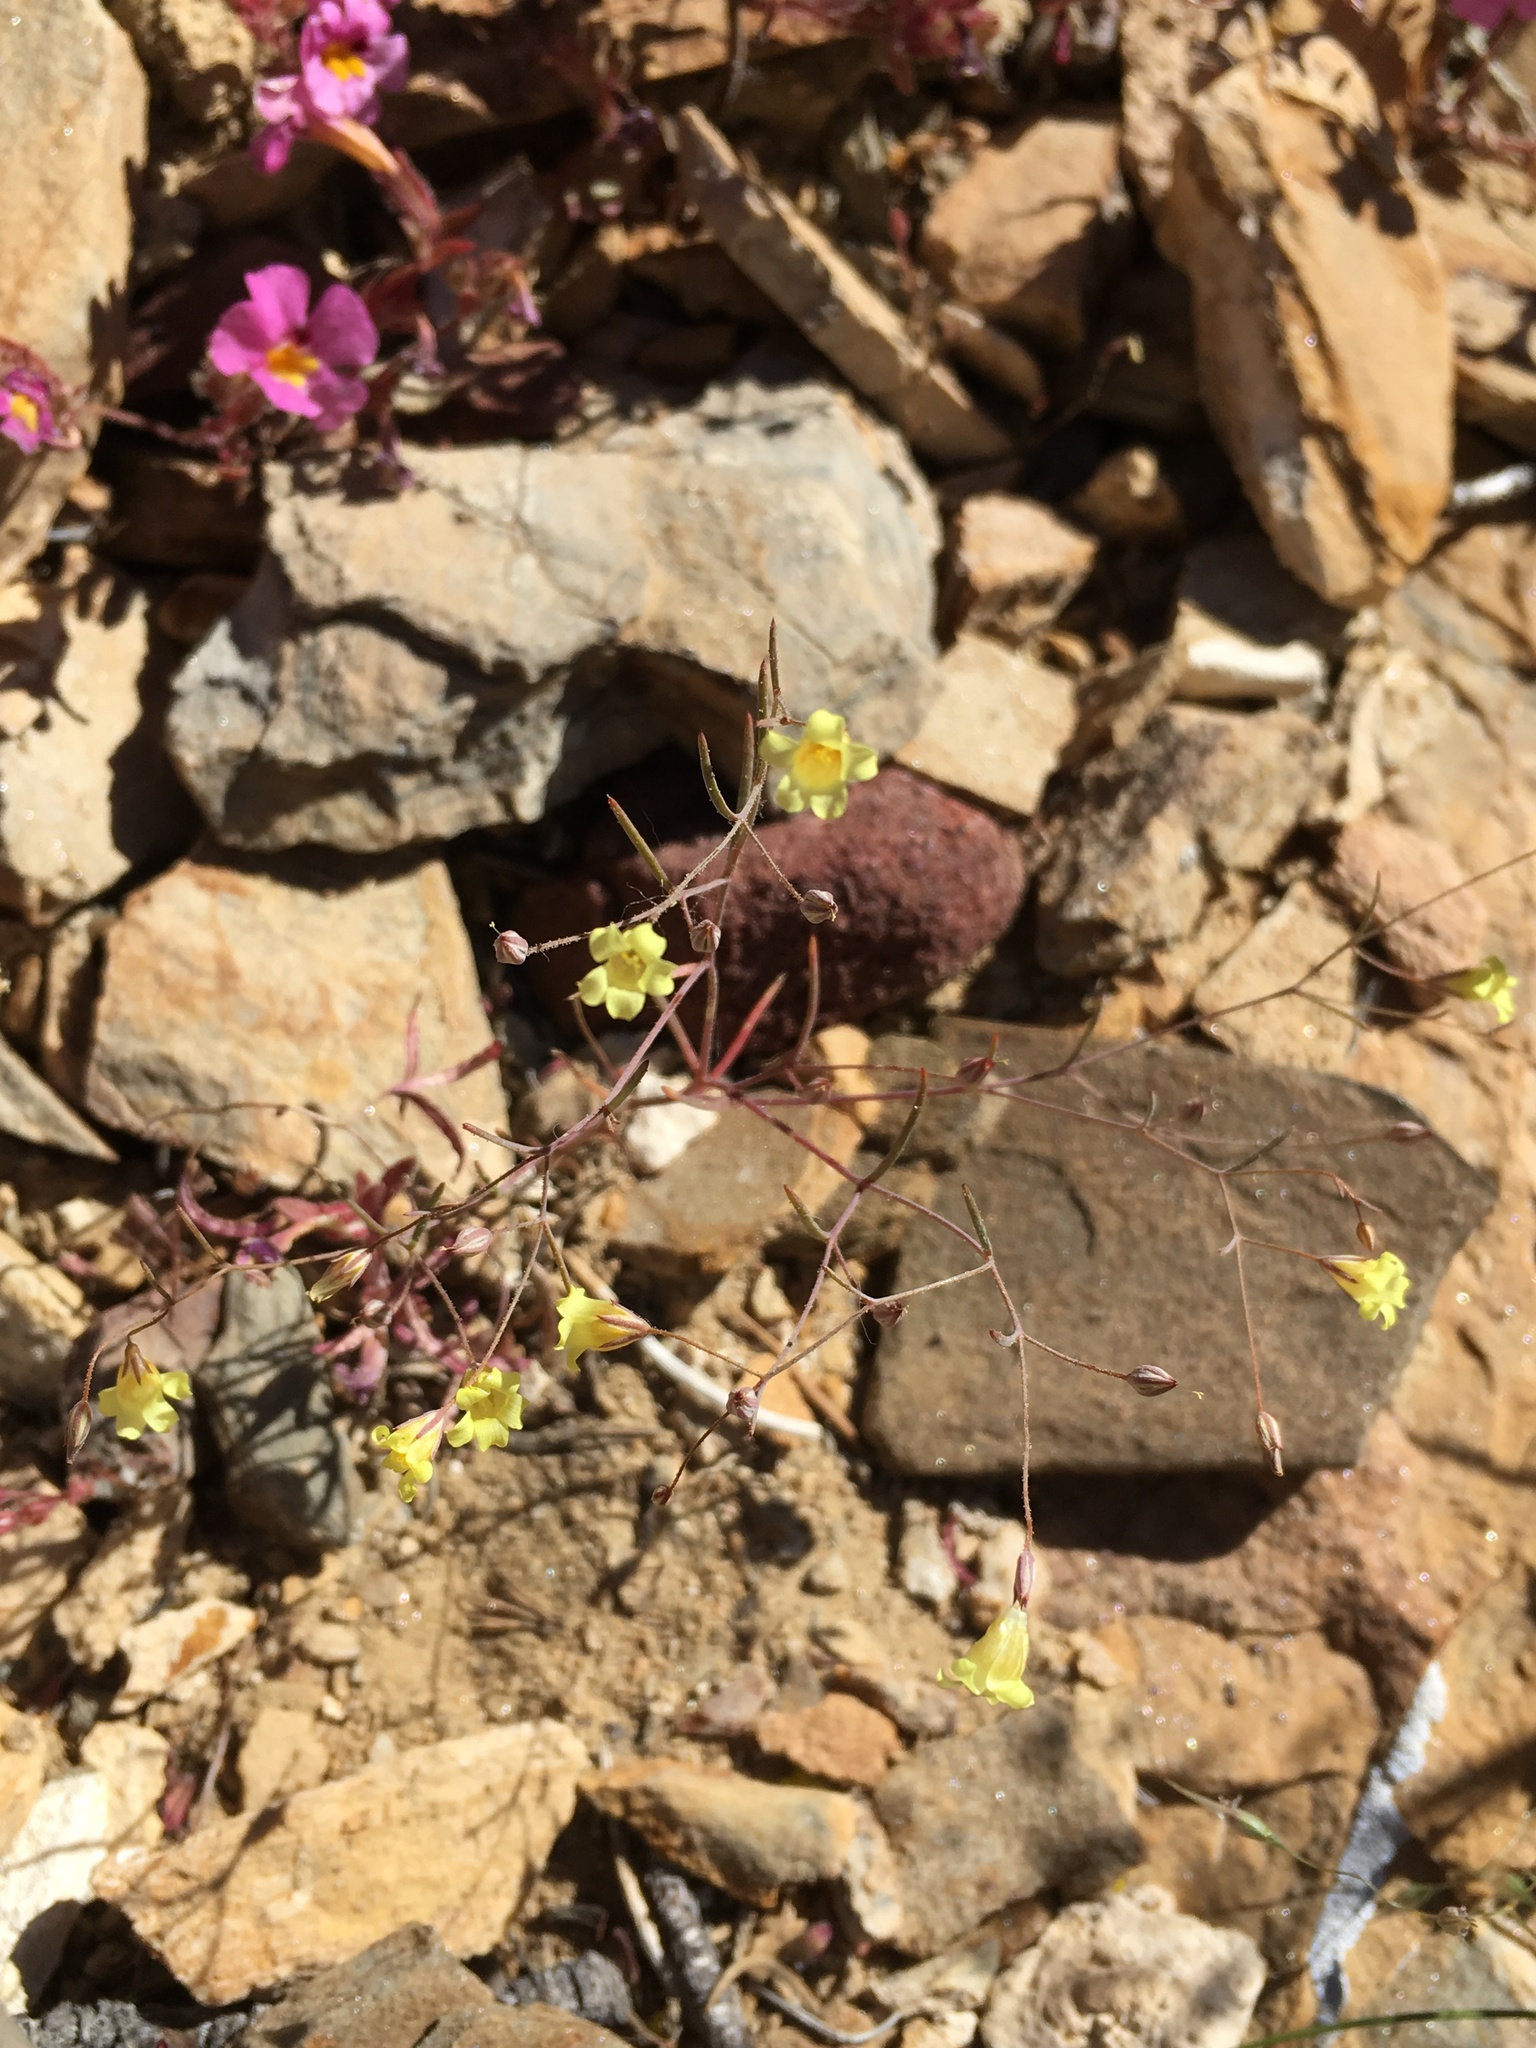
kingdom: Plantae
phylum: Tracheophyta
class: Magnoliopsida
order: Ericales
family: Polemoniaceae
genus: Linanthus
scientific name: Linanthus filiformis
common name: Yellow gilia
